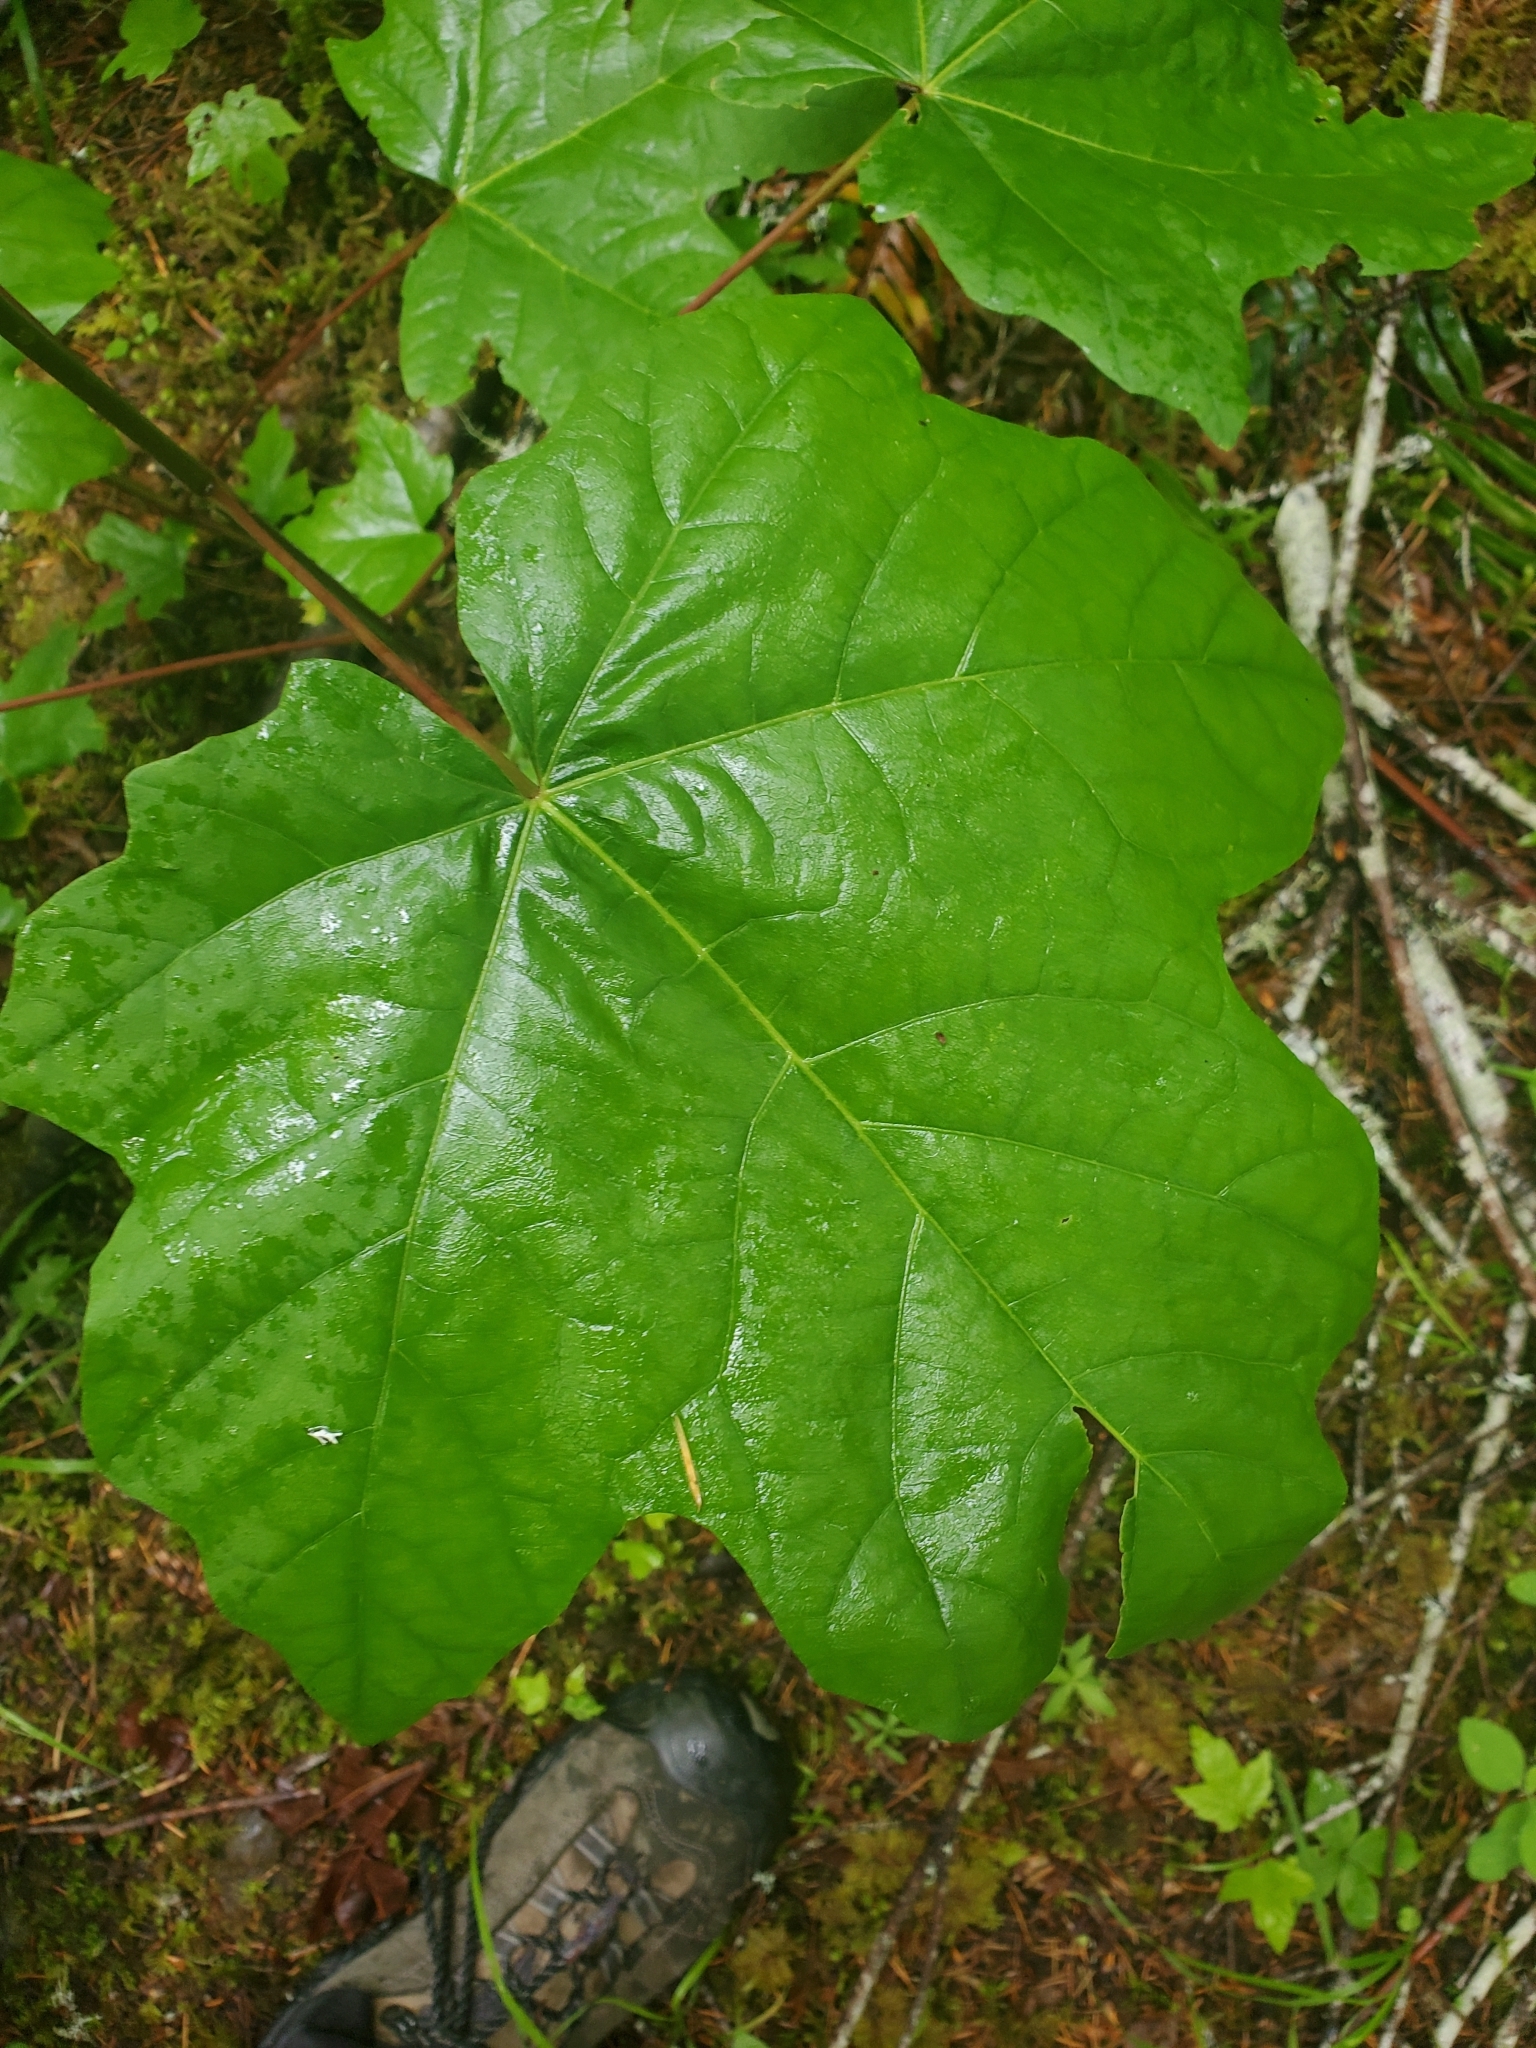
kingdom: Plantae
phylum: Tracheophyta
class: Magnoliopsida
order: Sapindales
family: Sapindaceae
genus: Acer
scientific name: Acer macrophyllum
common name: Oregon maple
